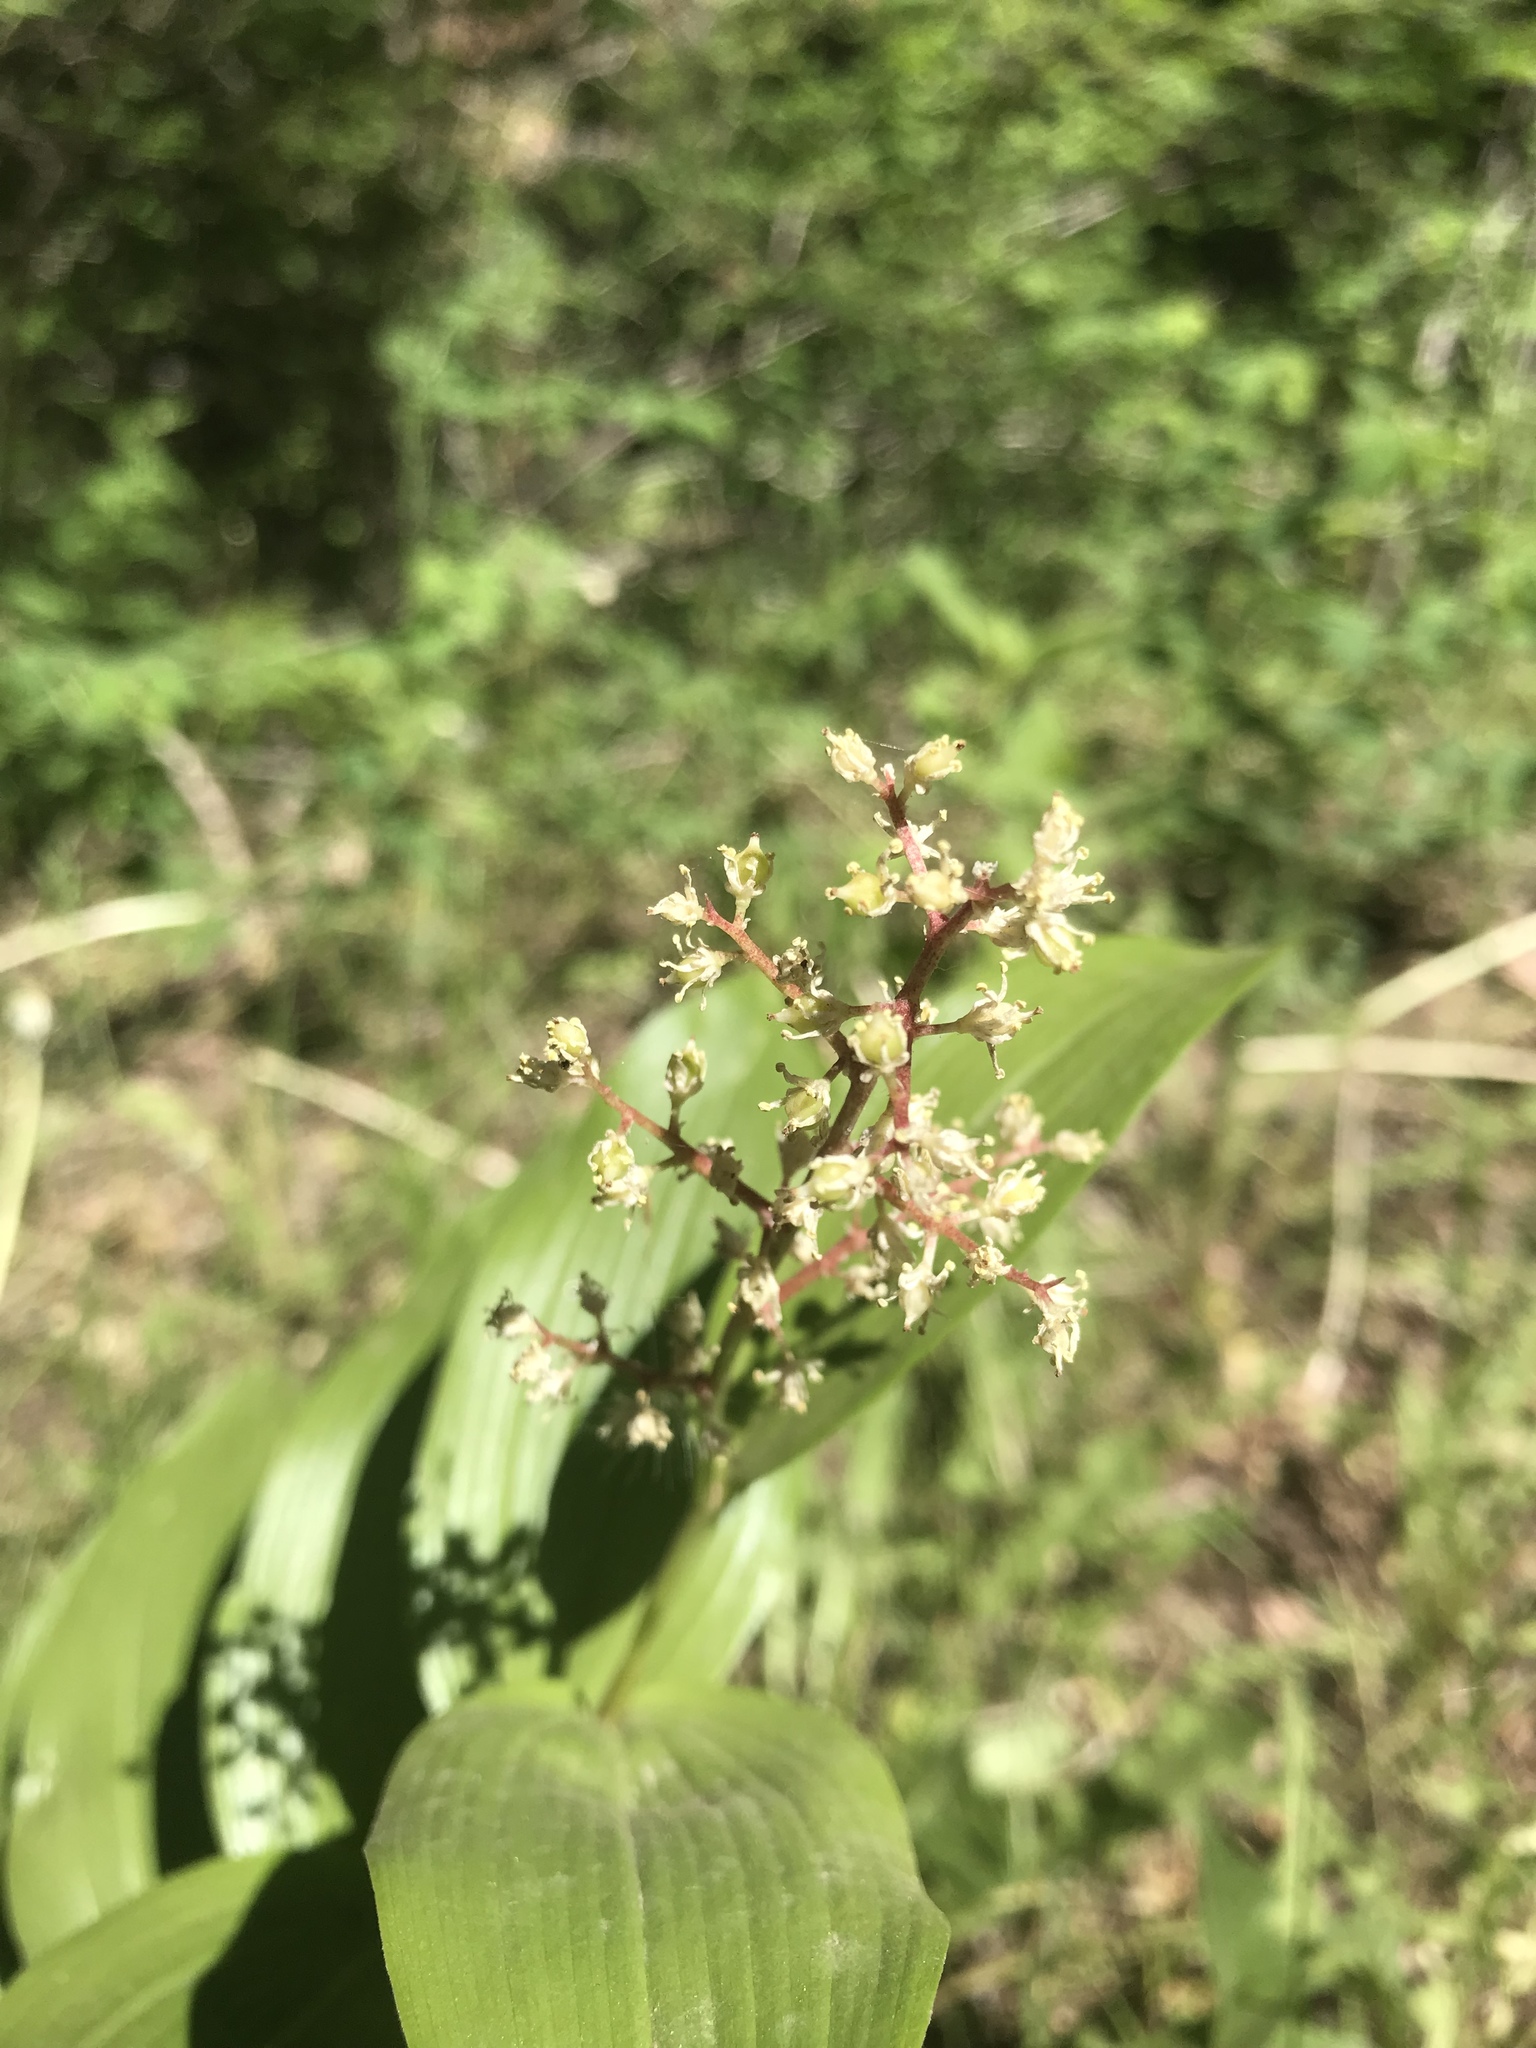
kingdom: Plantae
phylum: Tracheophyta
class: Liliopsida
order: Asparagales
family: Asparagaceae
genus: Maianthemum
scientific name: Maianthemum racemosum
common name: False spikenard
